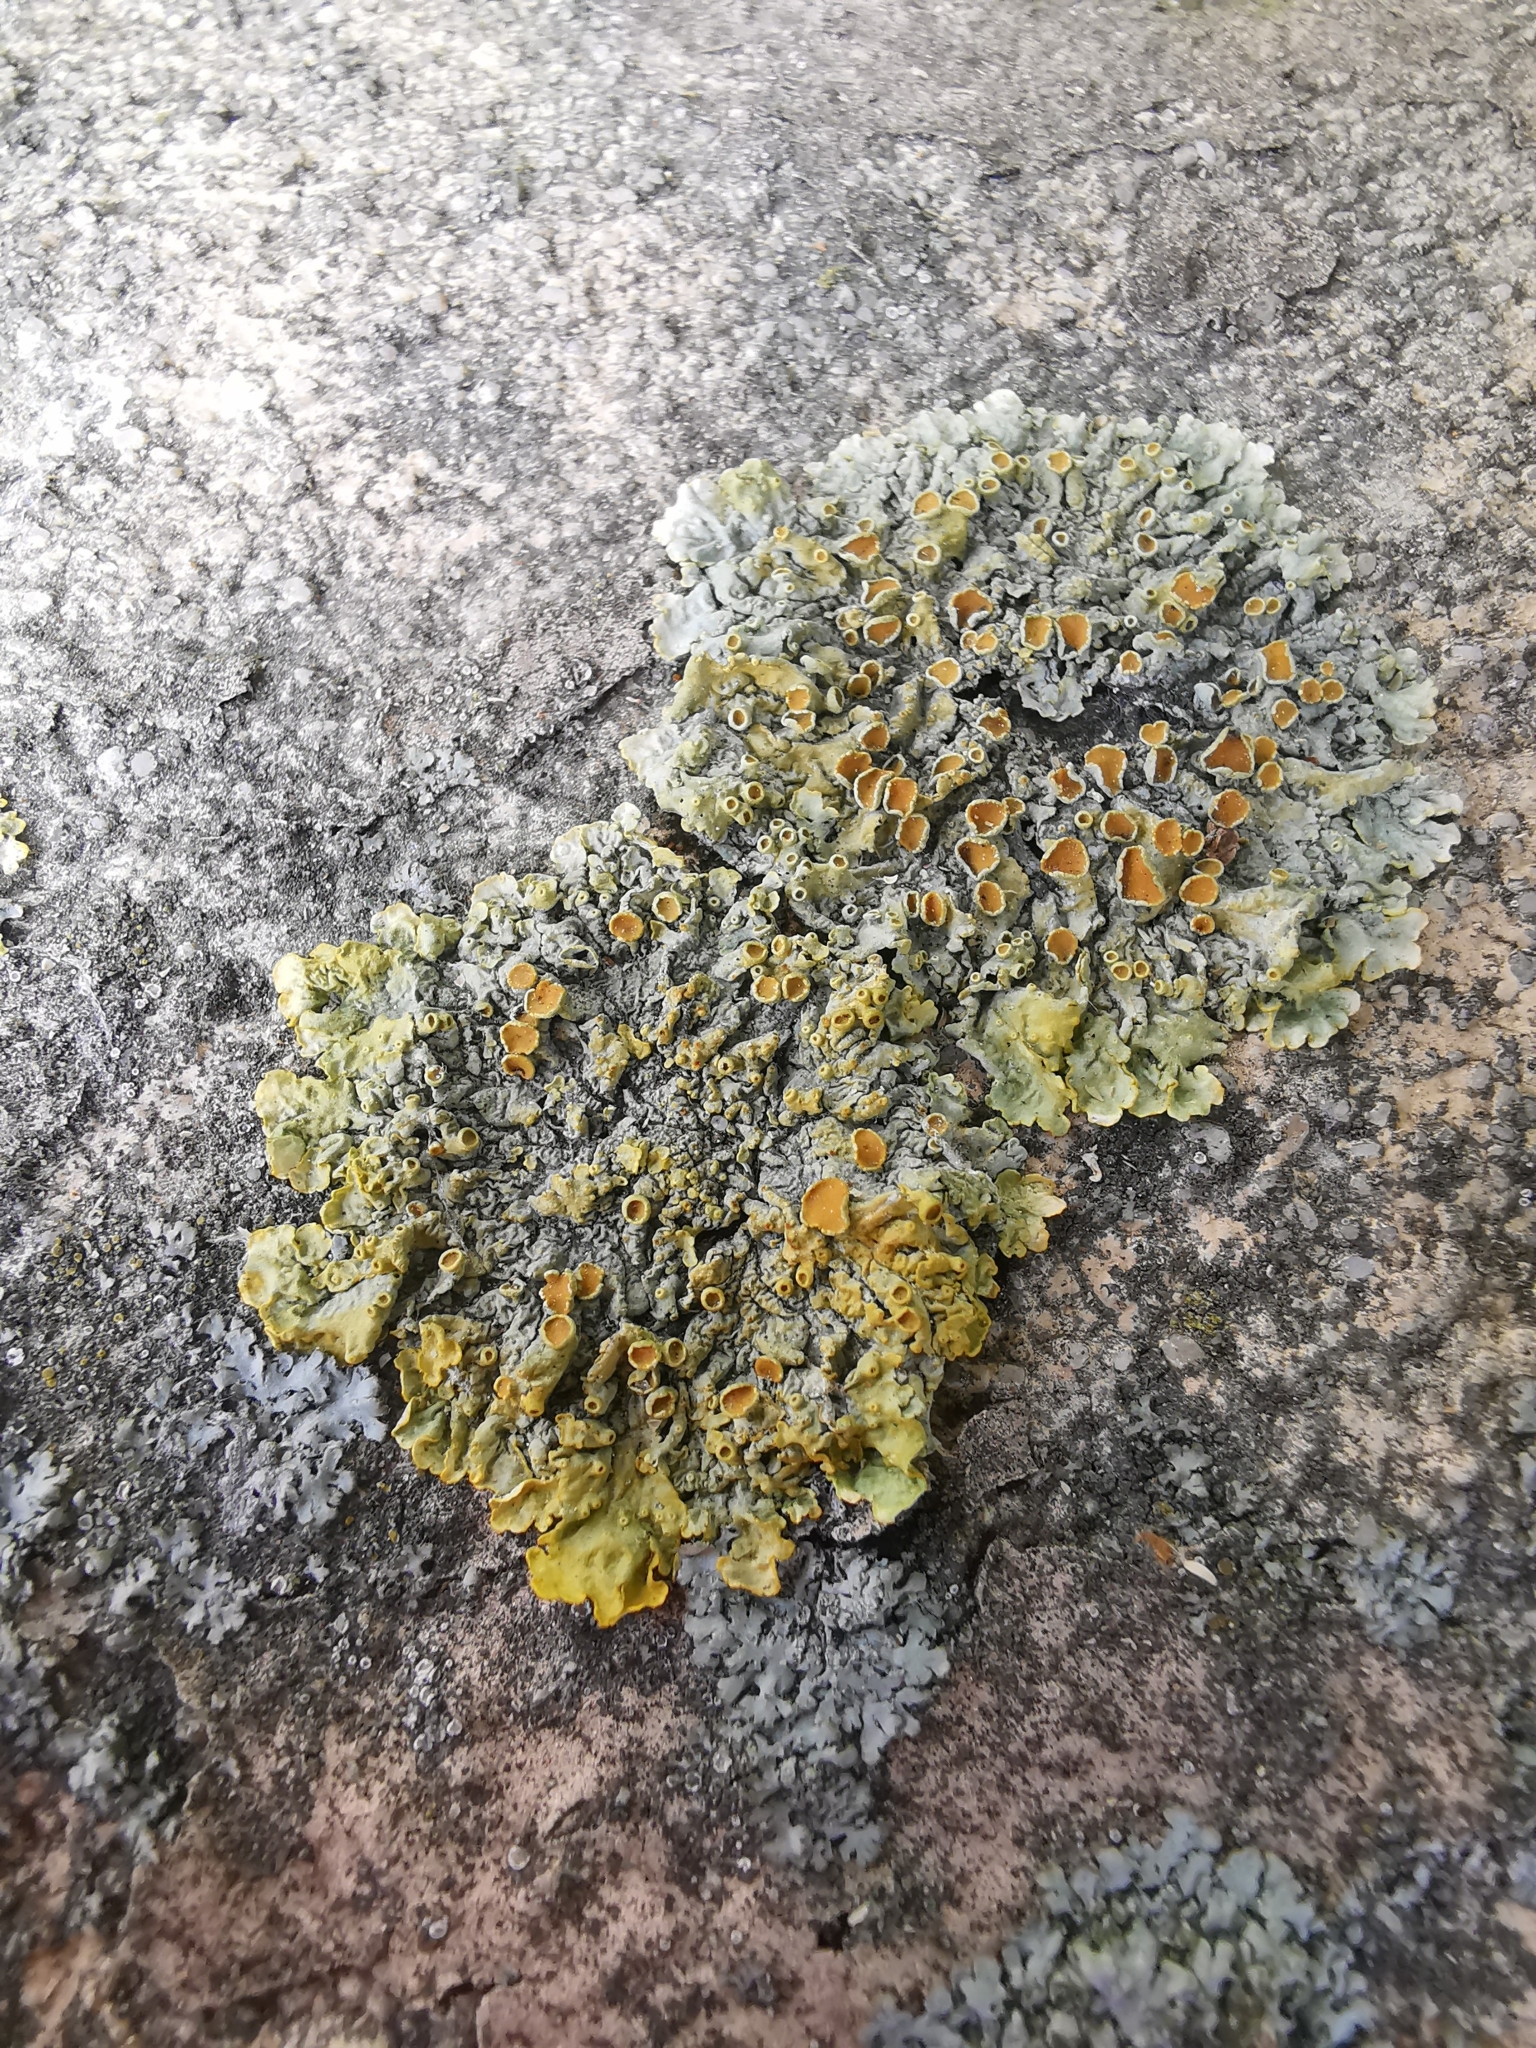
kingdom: Fungi
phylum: Ascomycota
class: Lecanoromycetes
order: Teloschistales
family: Teloschistaceae
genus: Xanthoria
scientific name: Xanthoria parietina
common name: Common orange lichen
